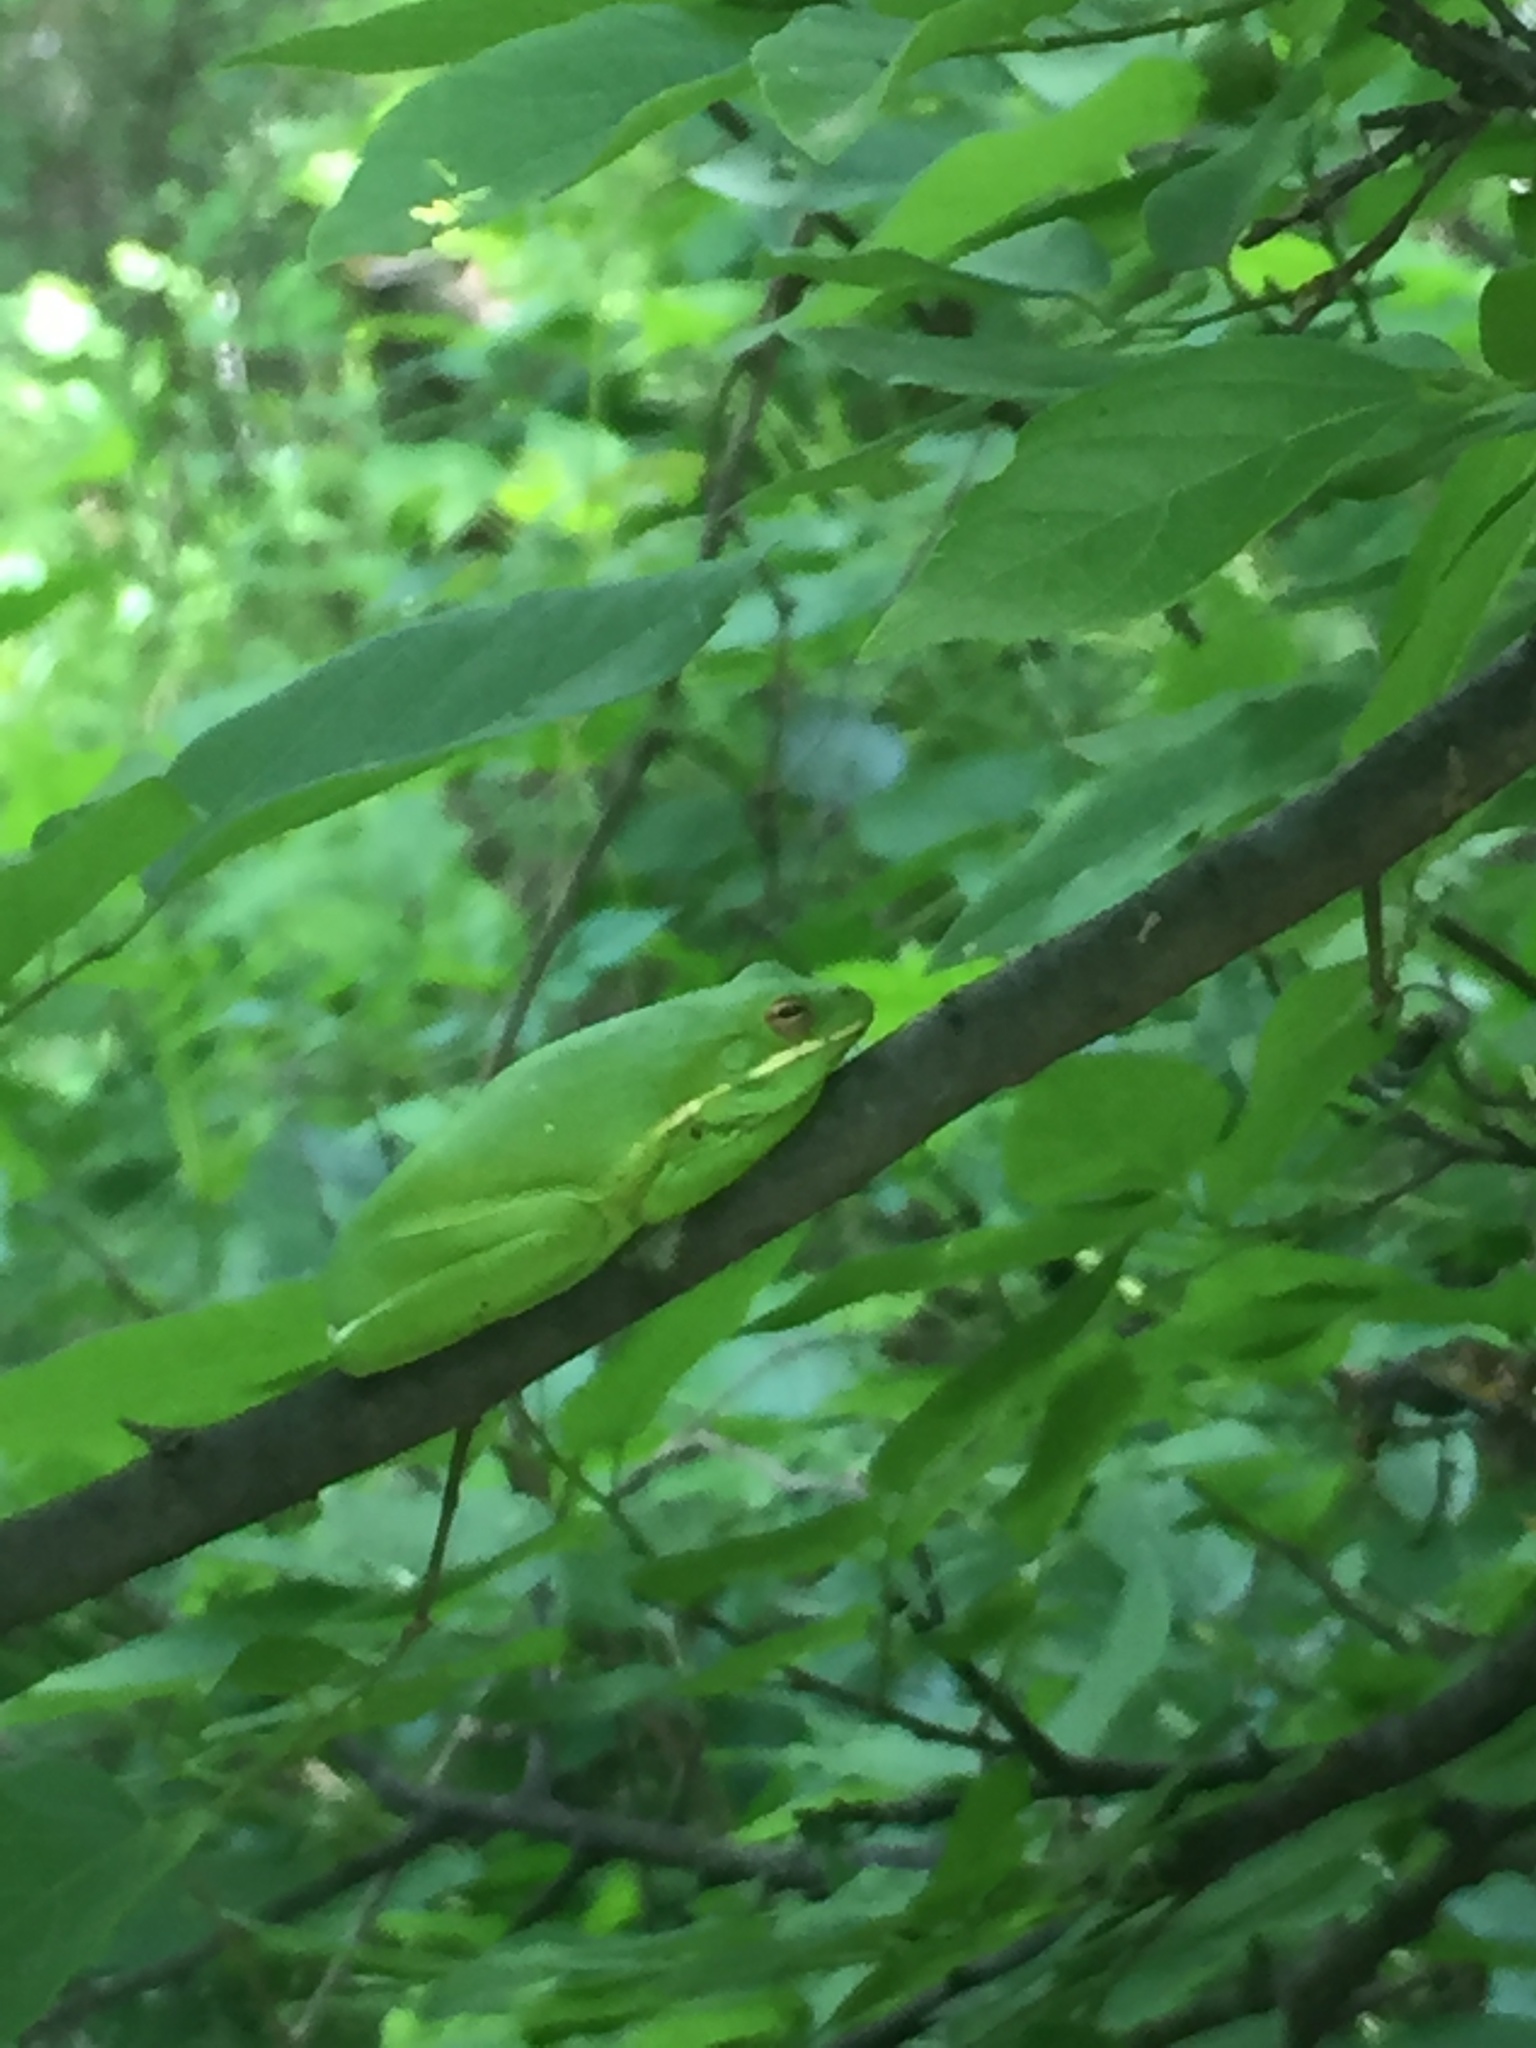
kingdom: Animalia
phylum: Chordata
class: Amphibia
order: Anura
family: Hylidae
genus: Dryophytes
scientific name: Dryophytes cinereus
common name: Green treefrog
